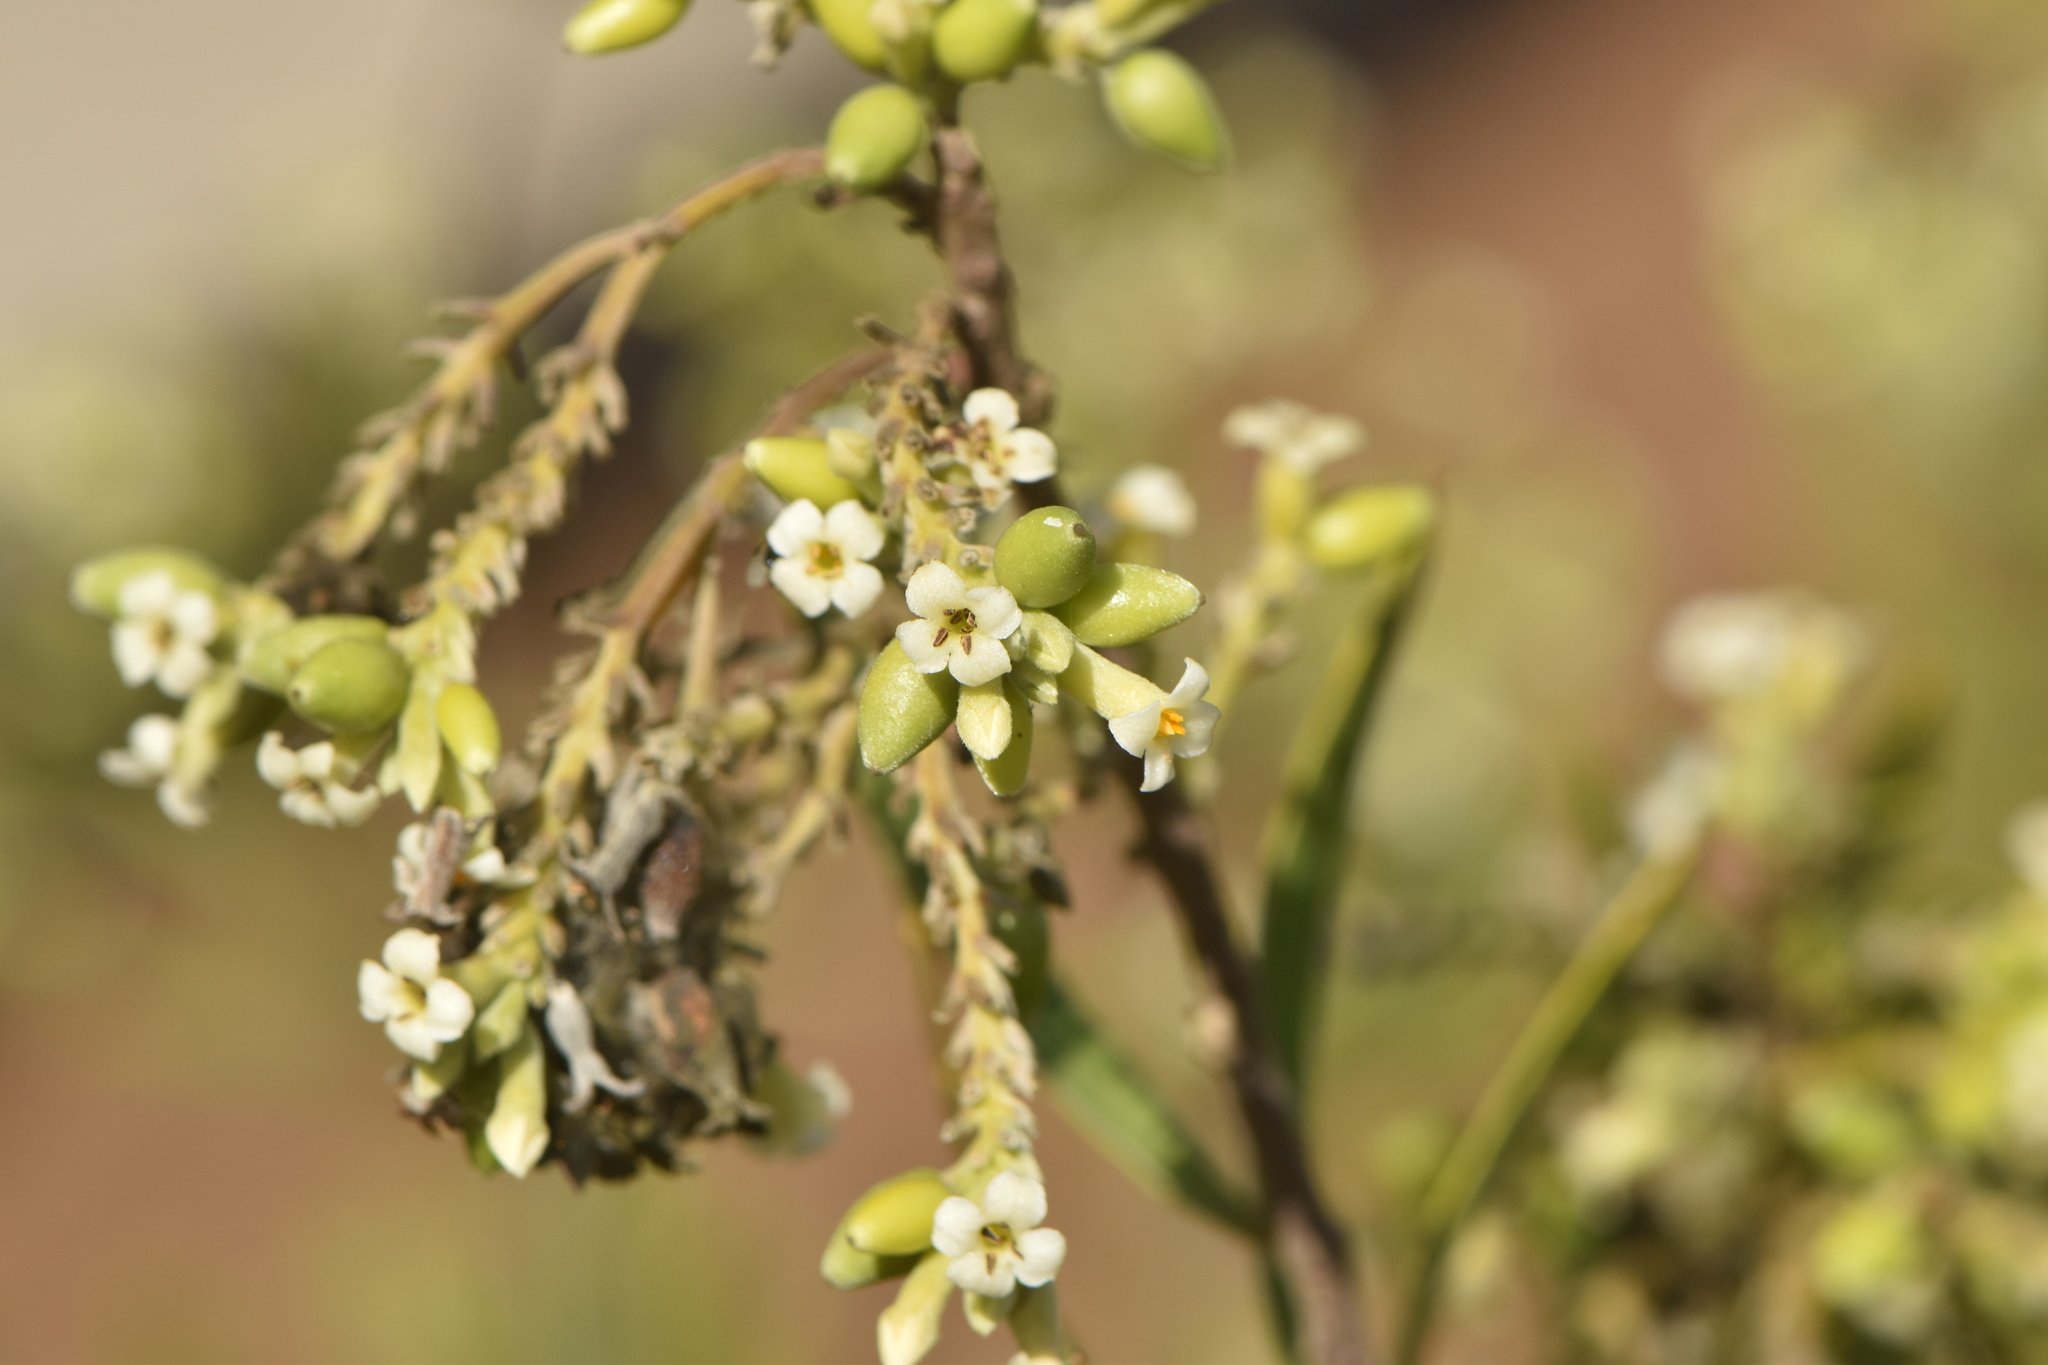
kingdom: Plantae
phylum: Tracheophyta
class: Magnoliopsida
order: Malvales
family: Thymelaeaceae
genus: Daphne
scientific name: Daphne gnidium
